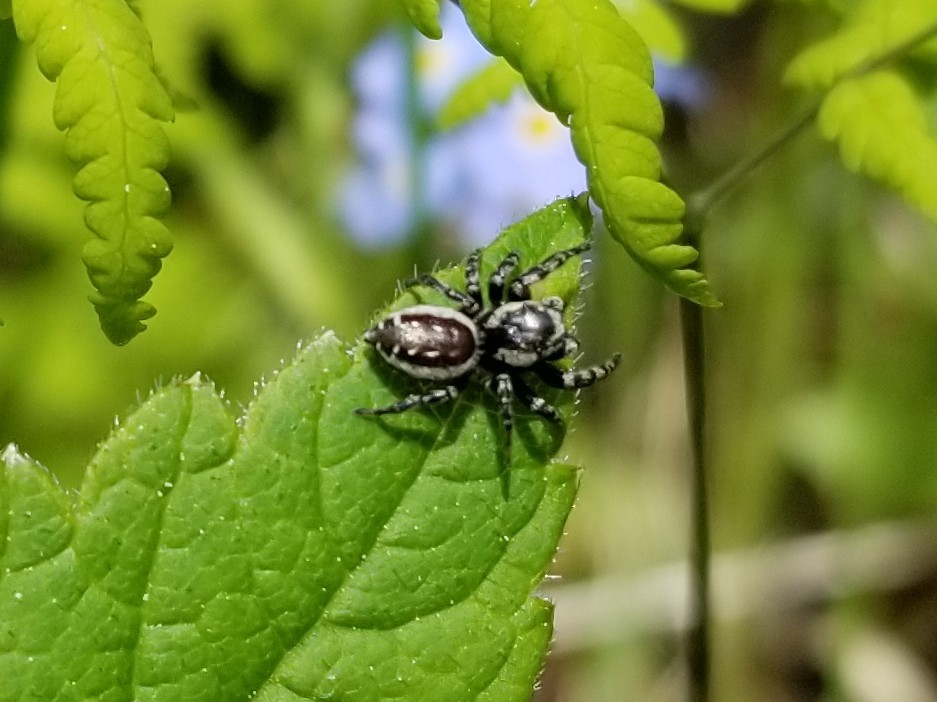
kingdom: Animalia
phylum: Arthropoda
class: Arachnida
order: Araneae
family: Salticidae
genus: Pelegrina
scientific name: Pelegrina montana
